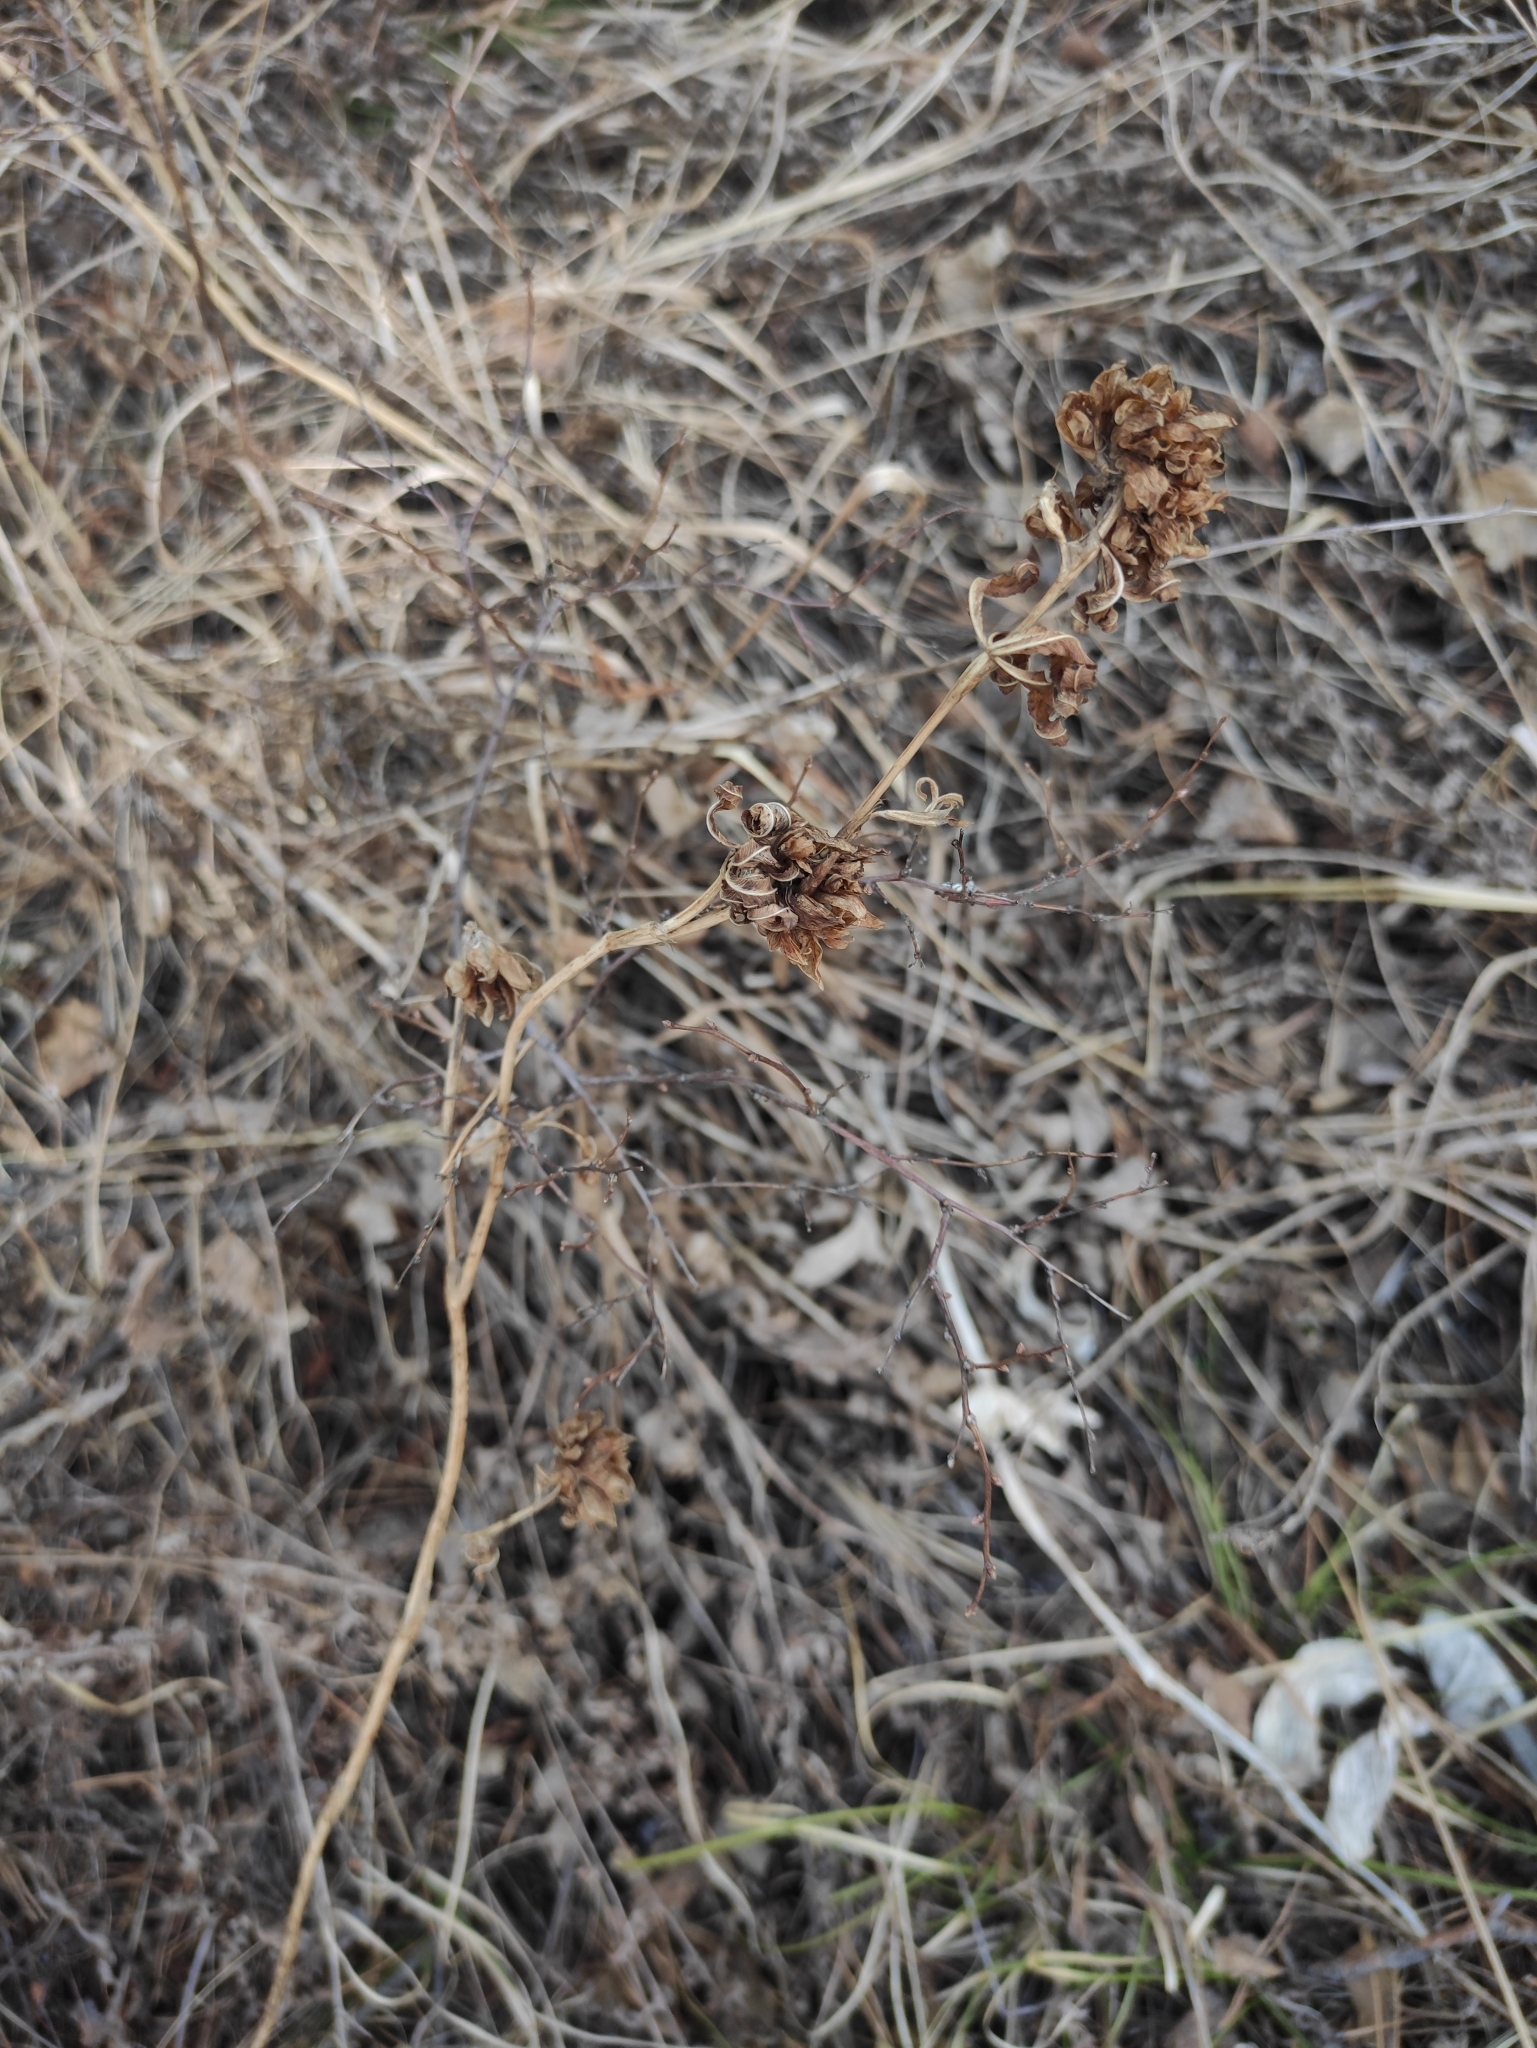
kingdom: Plantae
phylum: Tracheophyta
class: Magnoliopsida
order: Fabales
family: Fabaceae
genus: Trifolium
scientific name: Trifolium lupinaster
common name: Lupine clover
